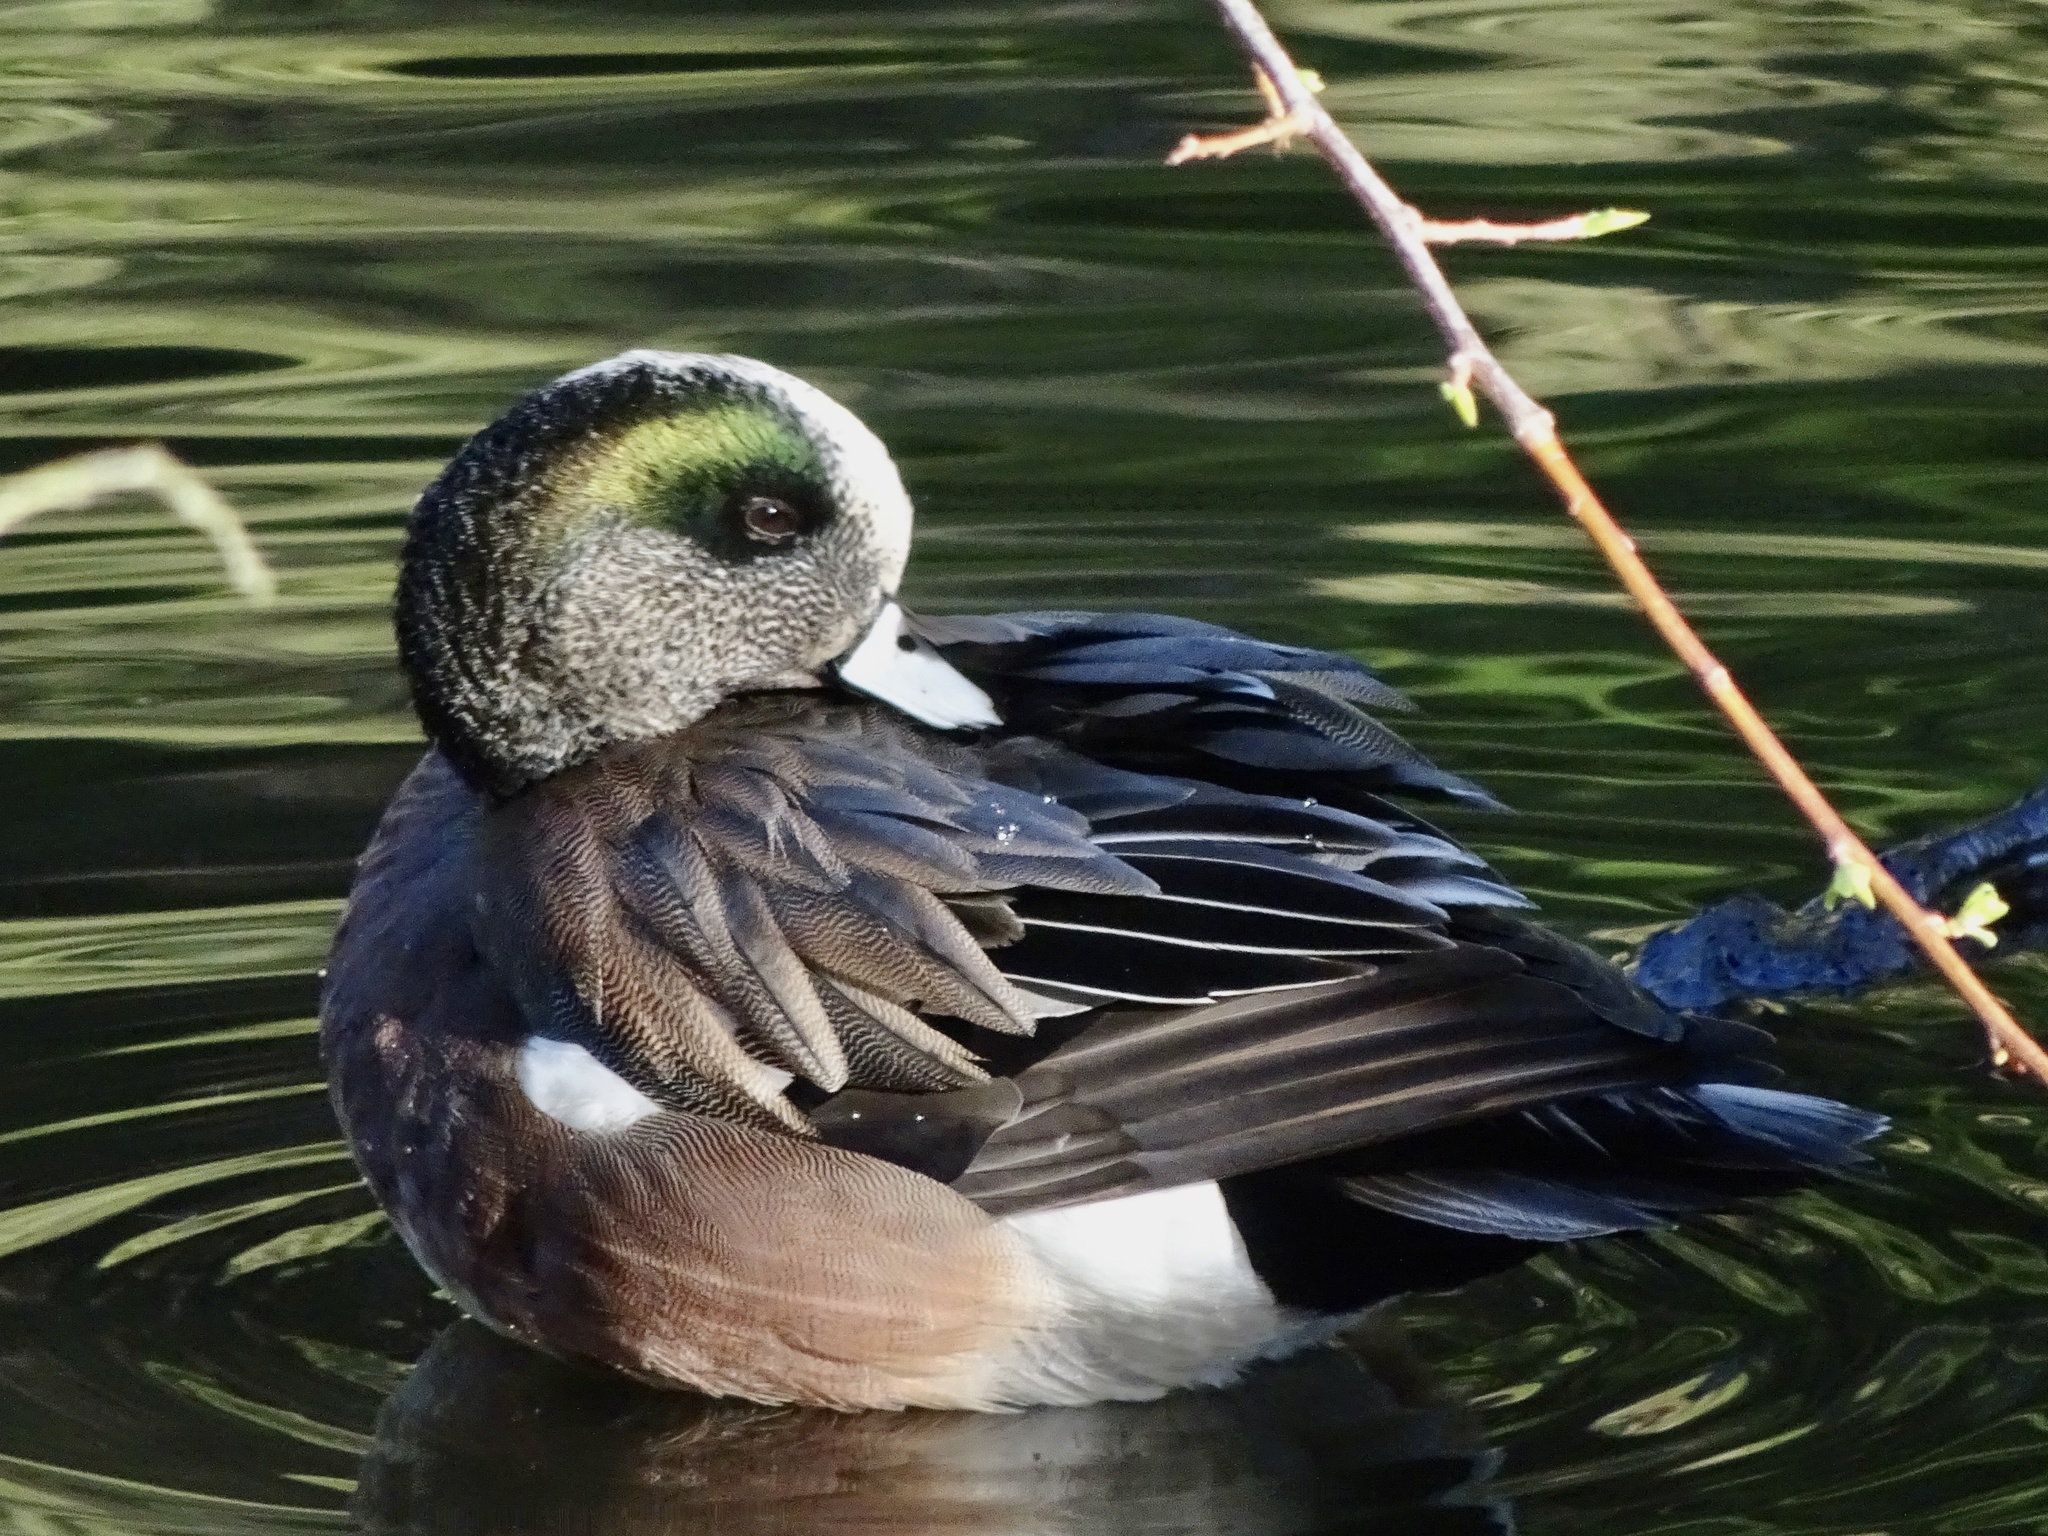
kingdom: Animalia
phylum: Chordata
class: Aves
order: Anseriformes
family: Anatidae
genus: Mareca
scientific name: Mareca americana
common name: American wigeon
